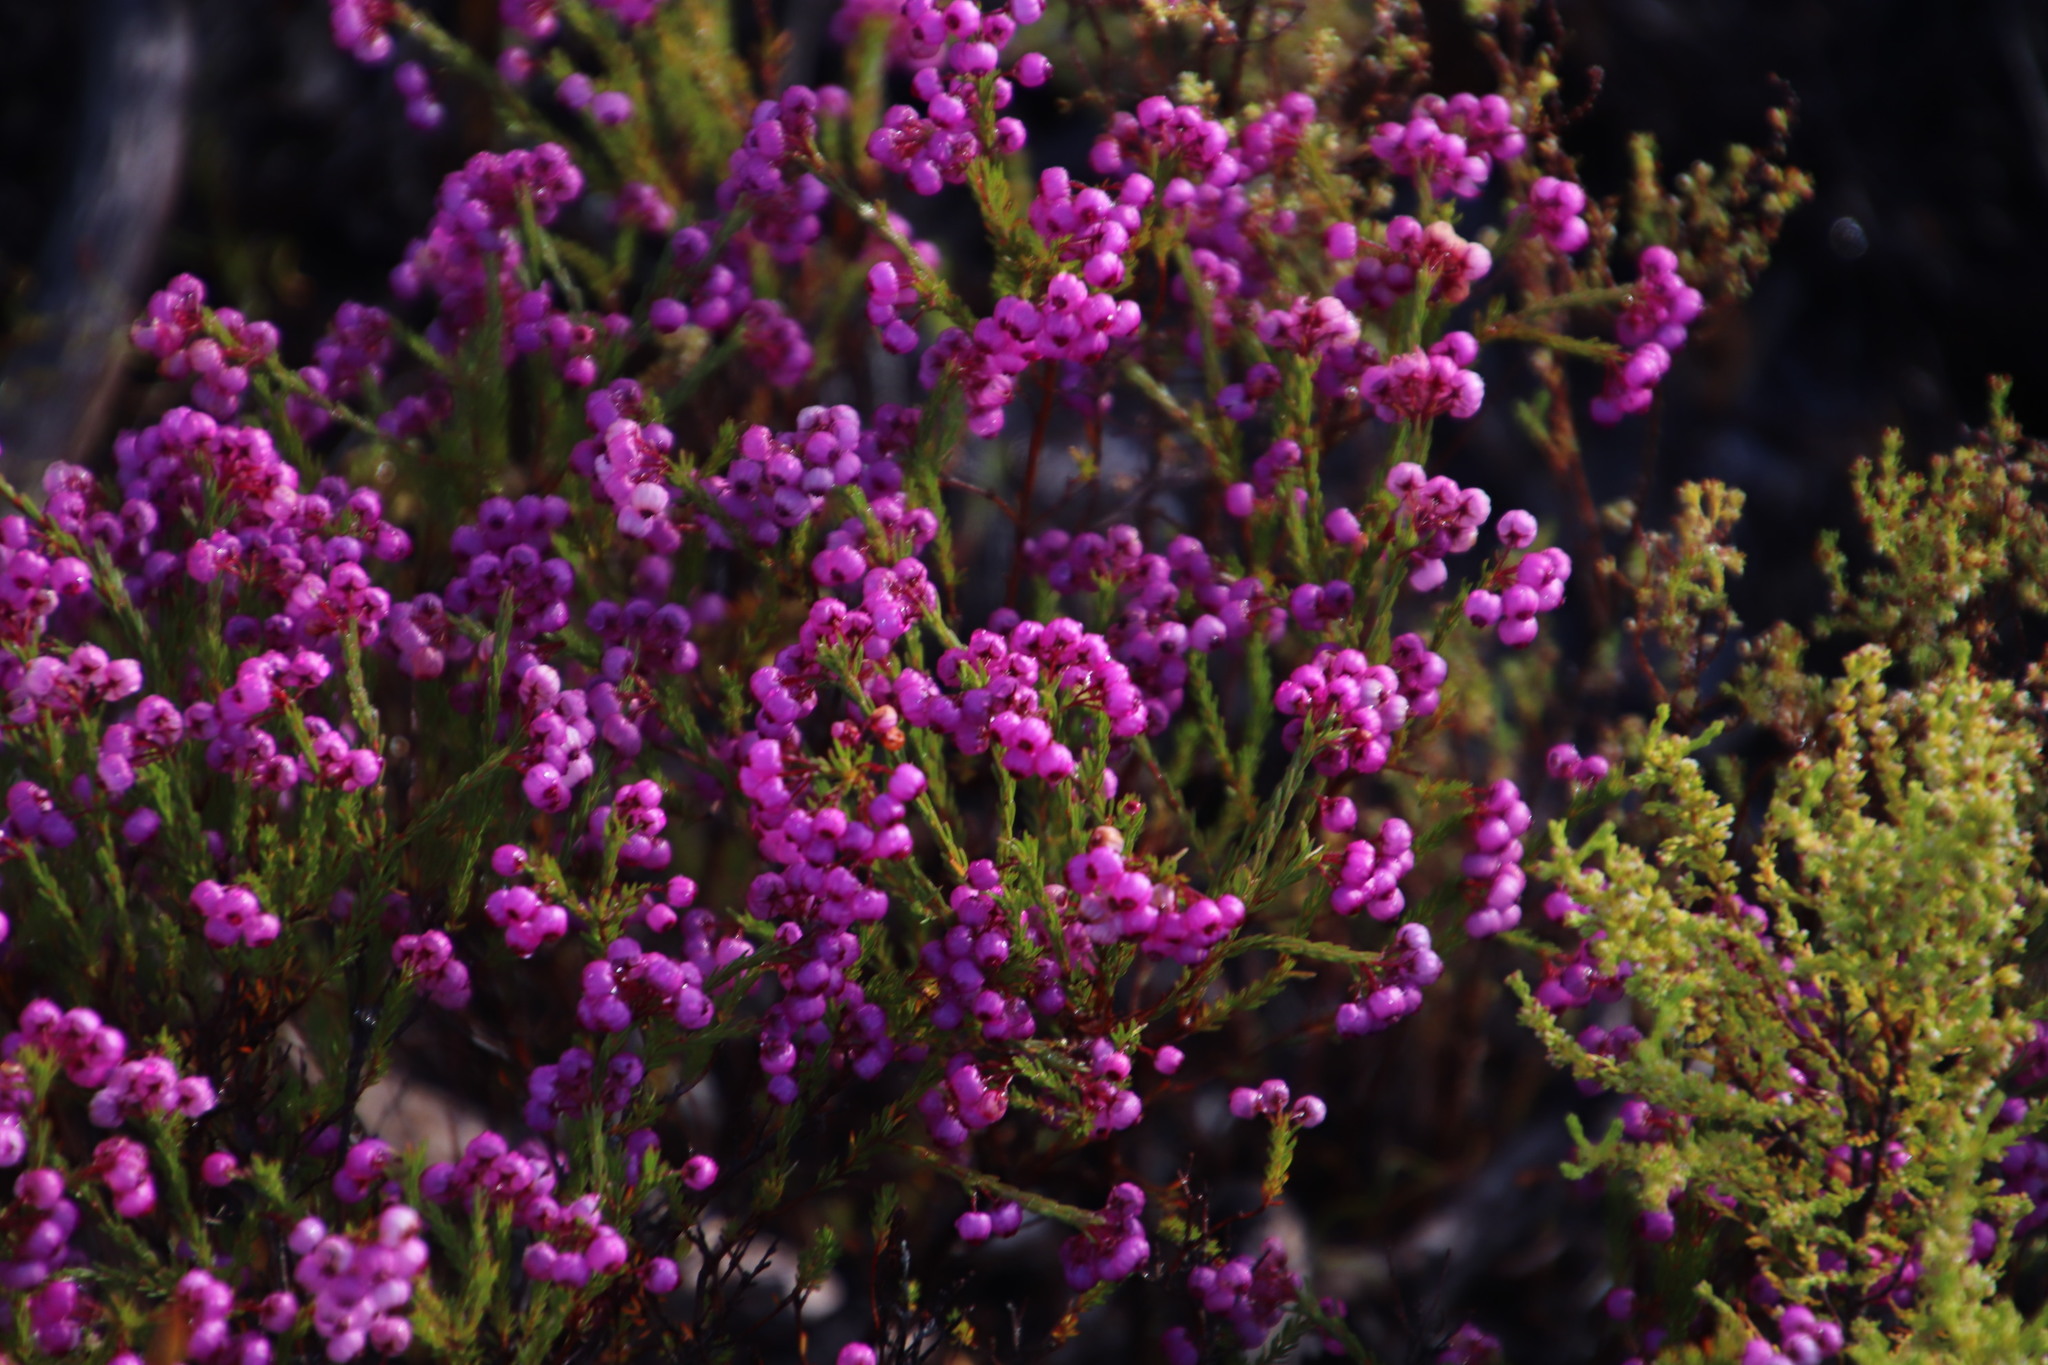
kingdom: Plantae
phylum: Tracheophyta
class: Magnoliopsida
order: Ericales
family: Ericaceae
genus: Erica
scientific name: Erica multumbellifera
